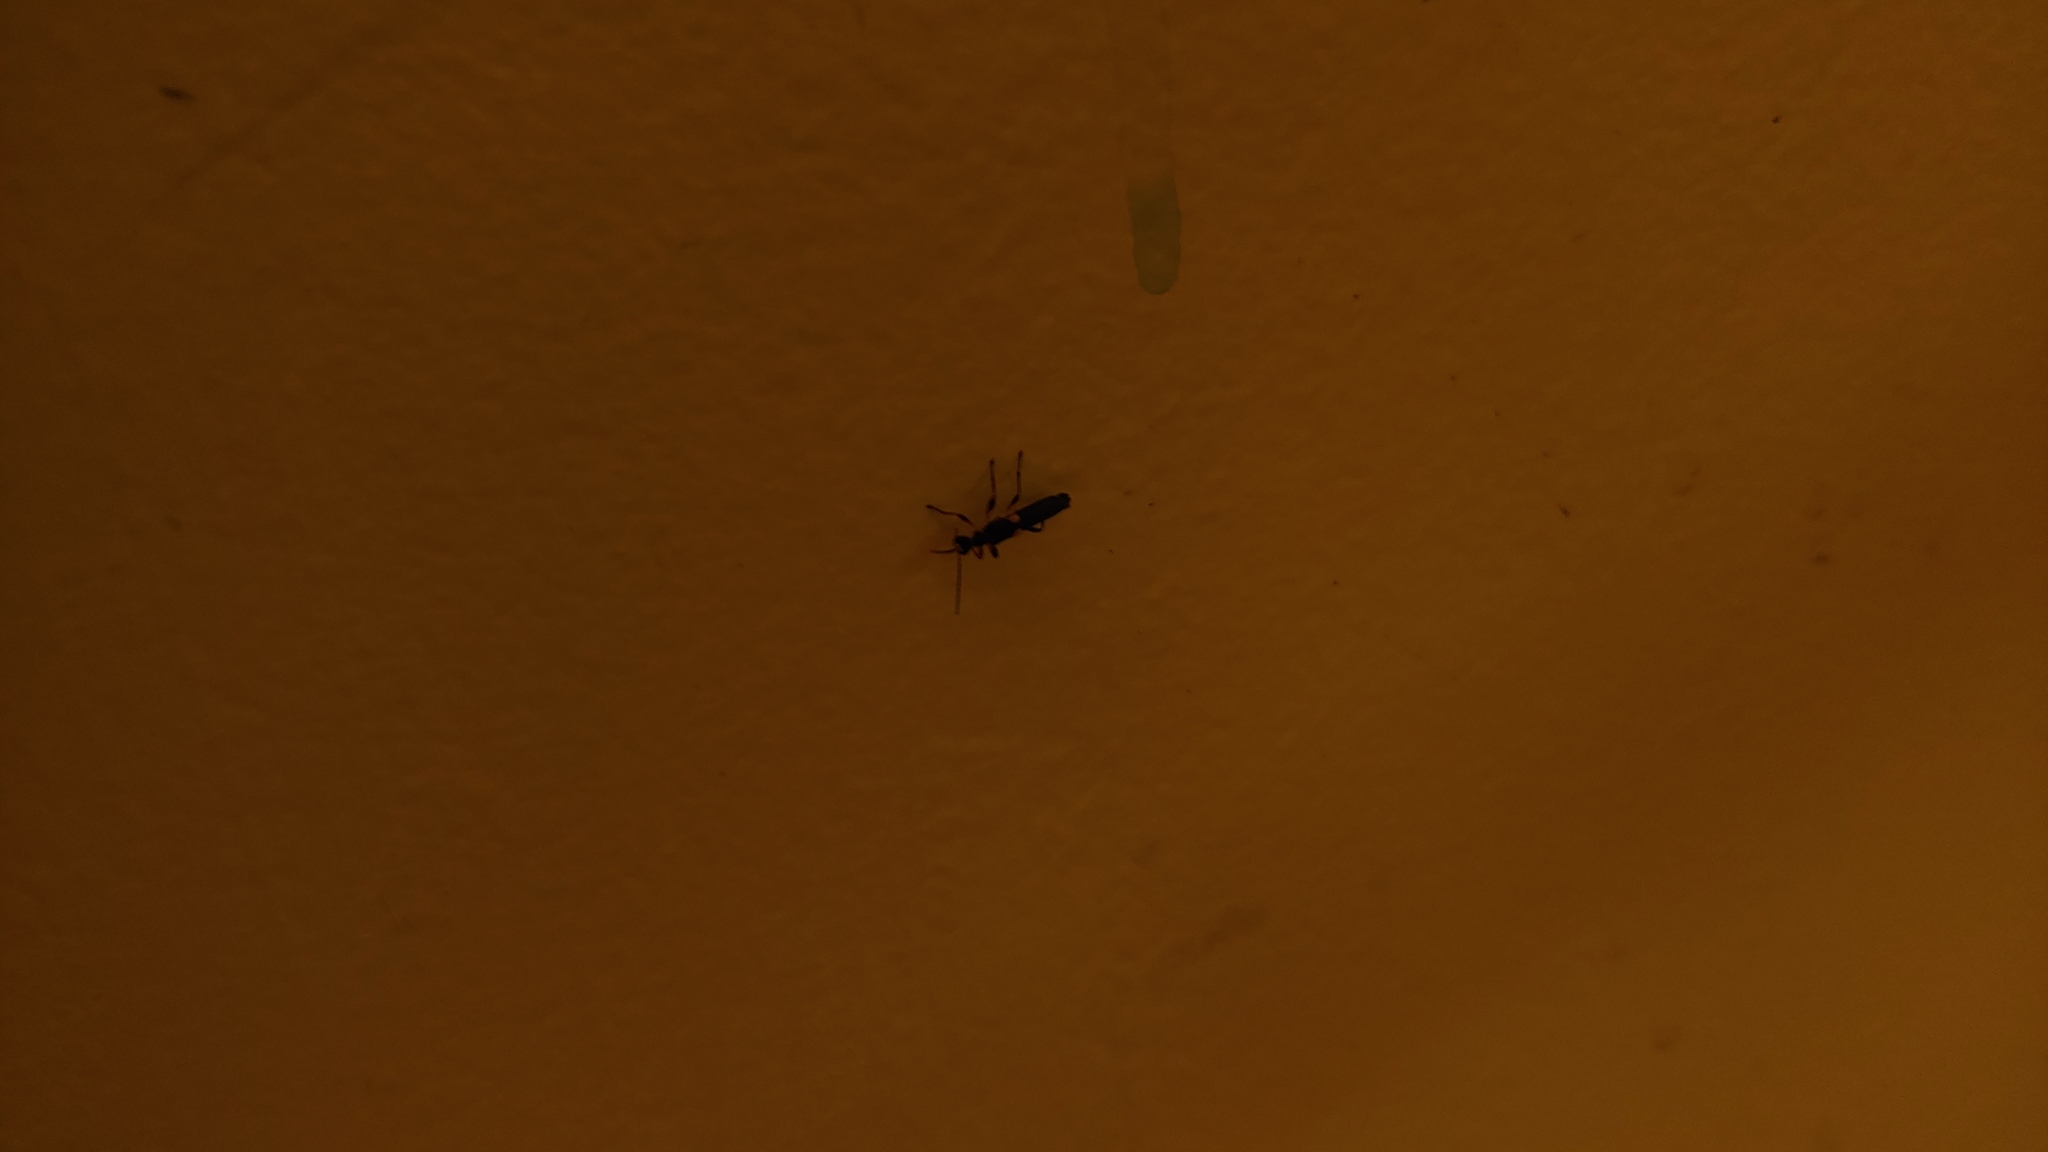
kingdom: Animalia
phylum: Arthropoda
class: Insecta
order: Coleoptera
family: Cantharidae
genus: Trypherus
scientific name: Trypherus
